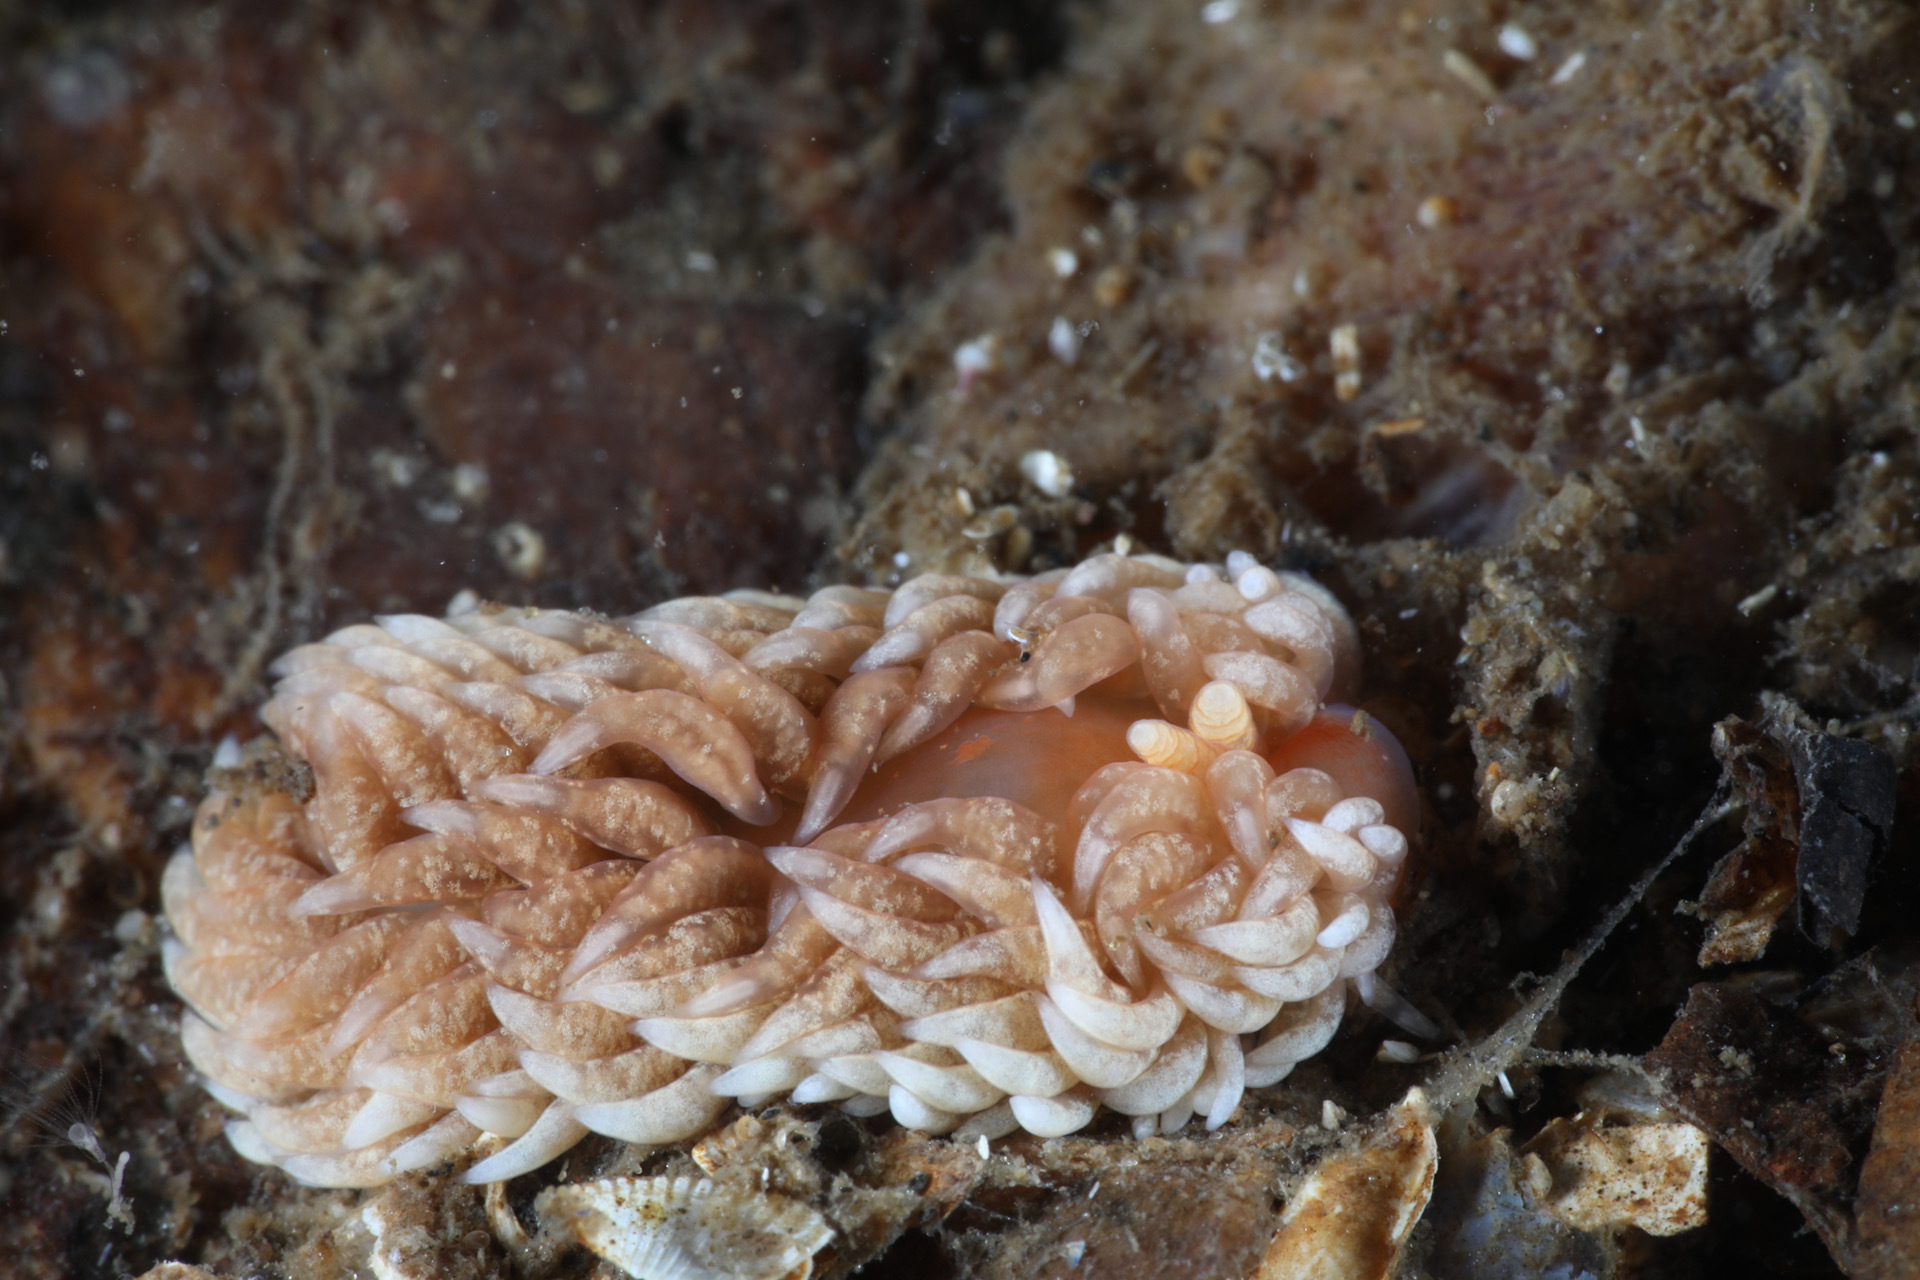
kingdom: Animalia
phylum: Mollusca
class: Gastropoda
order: Nudibranchia
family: Aeolidiidae
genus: Aeolidiella
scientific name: Aeolidiella glauca
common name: Orange-brown aeolid
